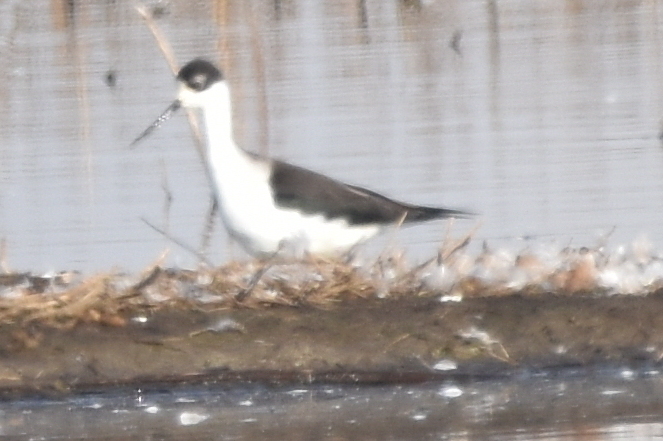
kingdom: Animalia
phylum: Chordata
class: Aves
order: Charadriiformes
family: Recurvirostridae
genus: Himantopus
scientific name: Himantopus mexicanus
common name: Black-necked stilt
